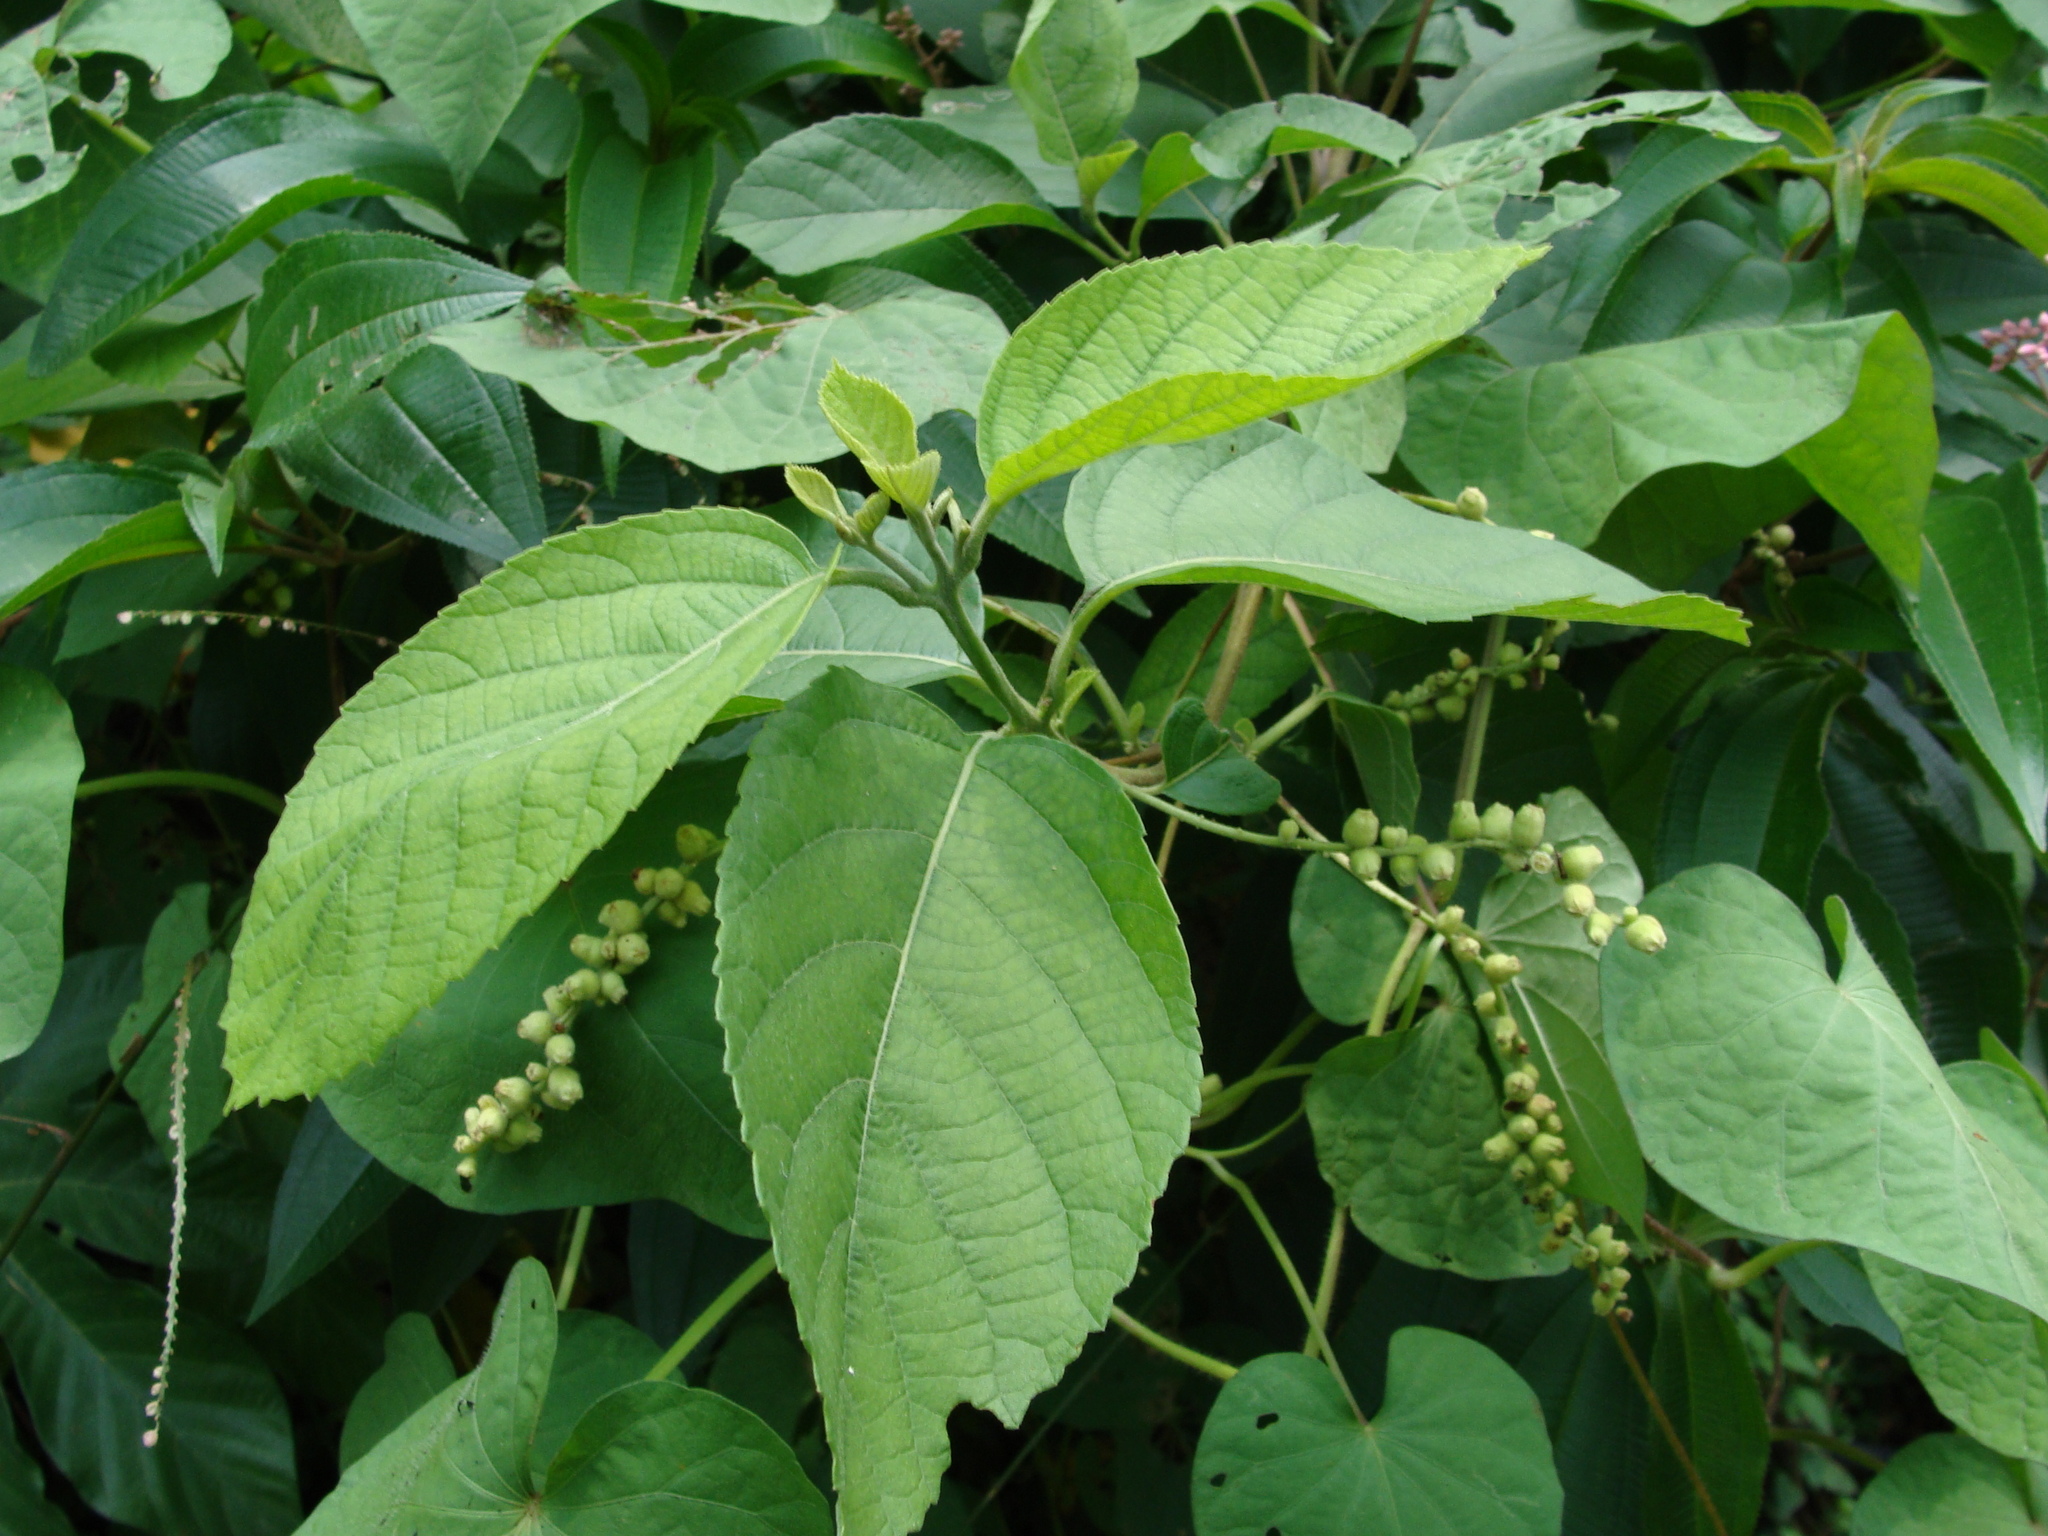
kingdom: Plantae
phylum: Tracheophyta
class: Magnoliopsida
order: Boraginales
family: Cordiaceae
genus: Varronia
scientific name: Varronia curassavica
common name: Black sage
